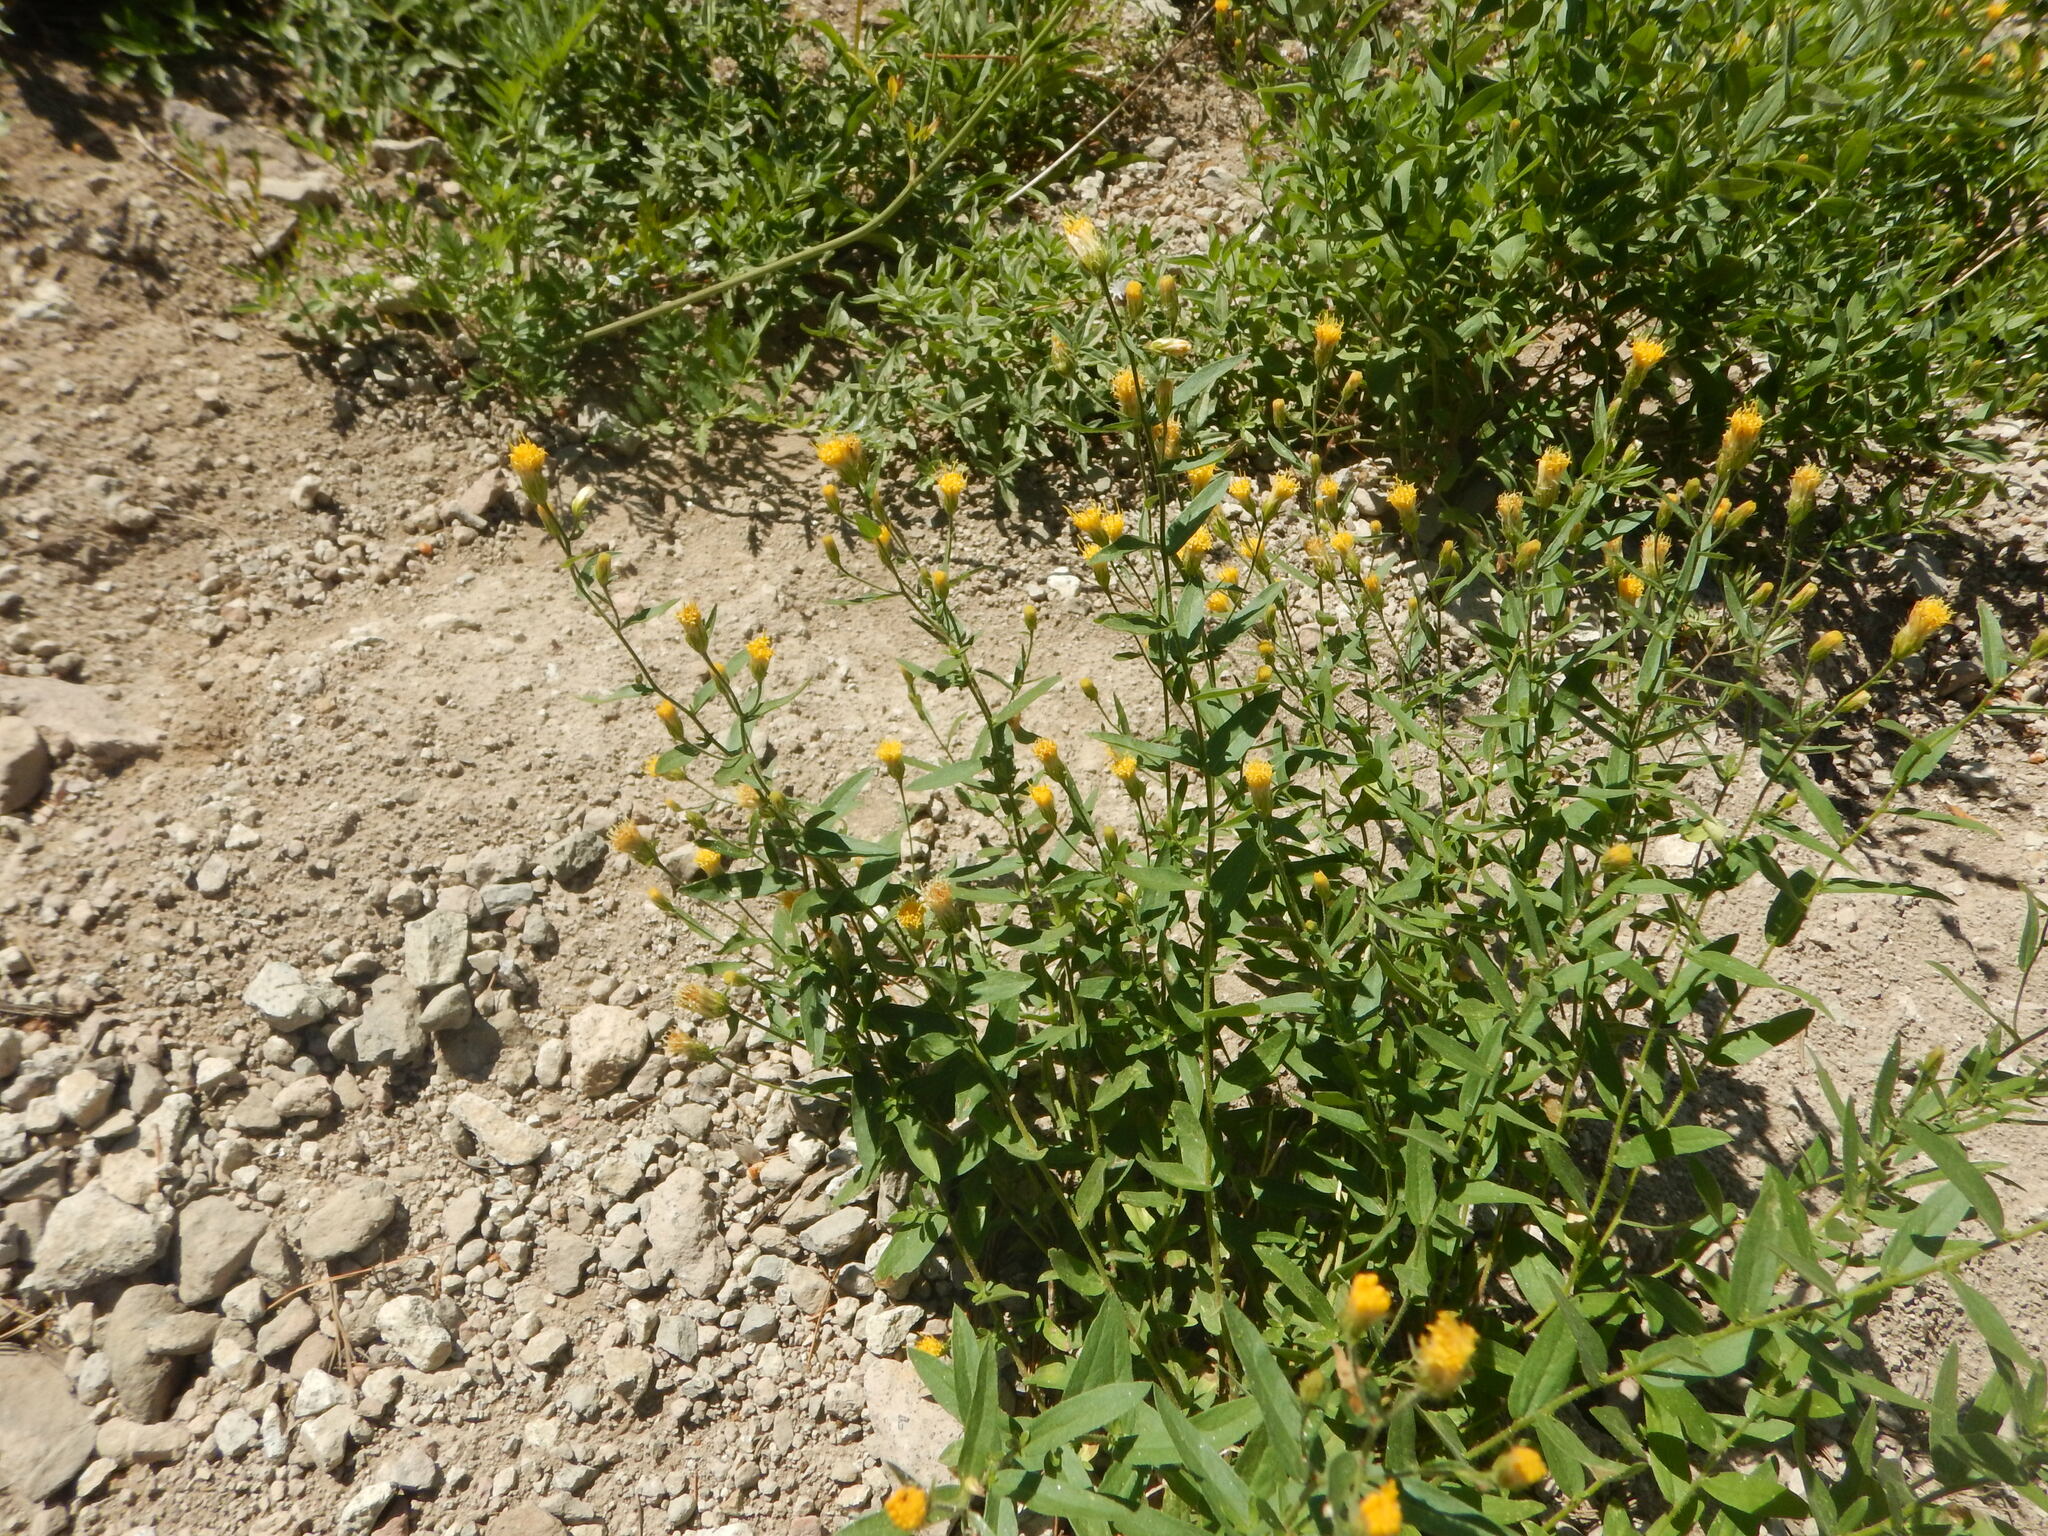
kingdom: Plantae
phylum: Tracheophyta
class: Magnoliopsida
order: Asterales
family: Asteraceae
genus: Eucephalus
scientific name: Eucephalus breweri
